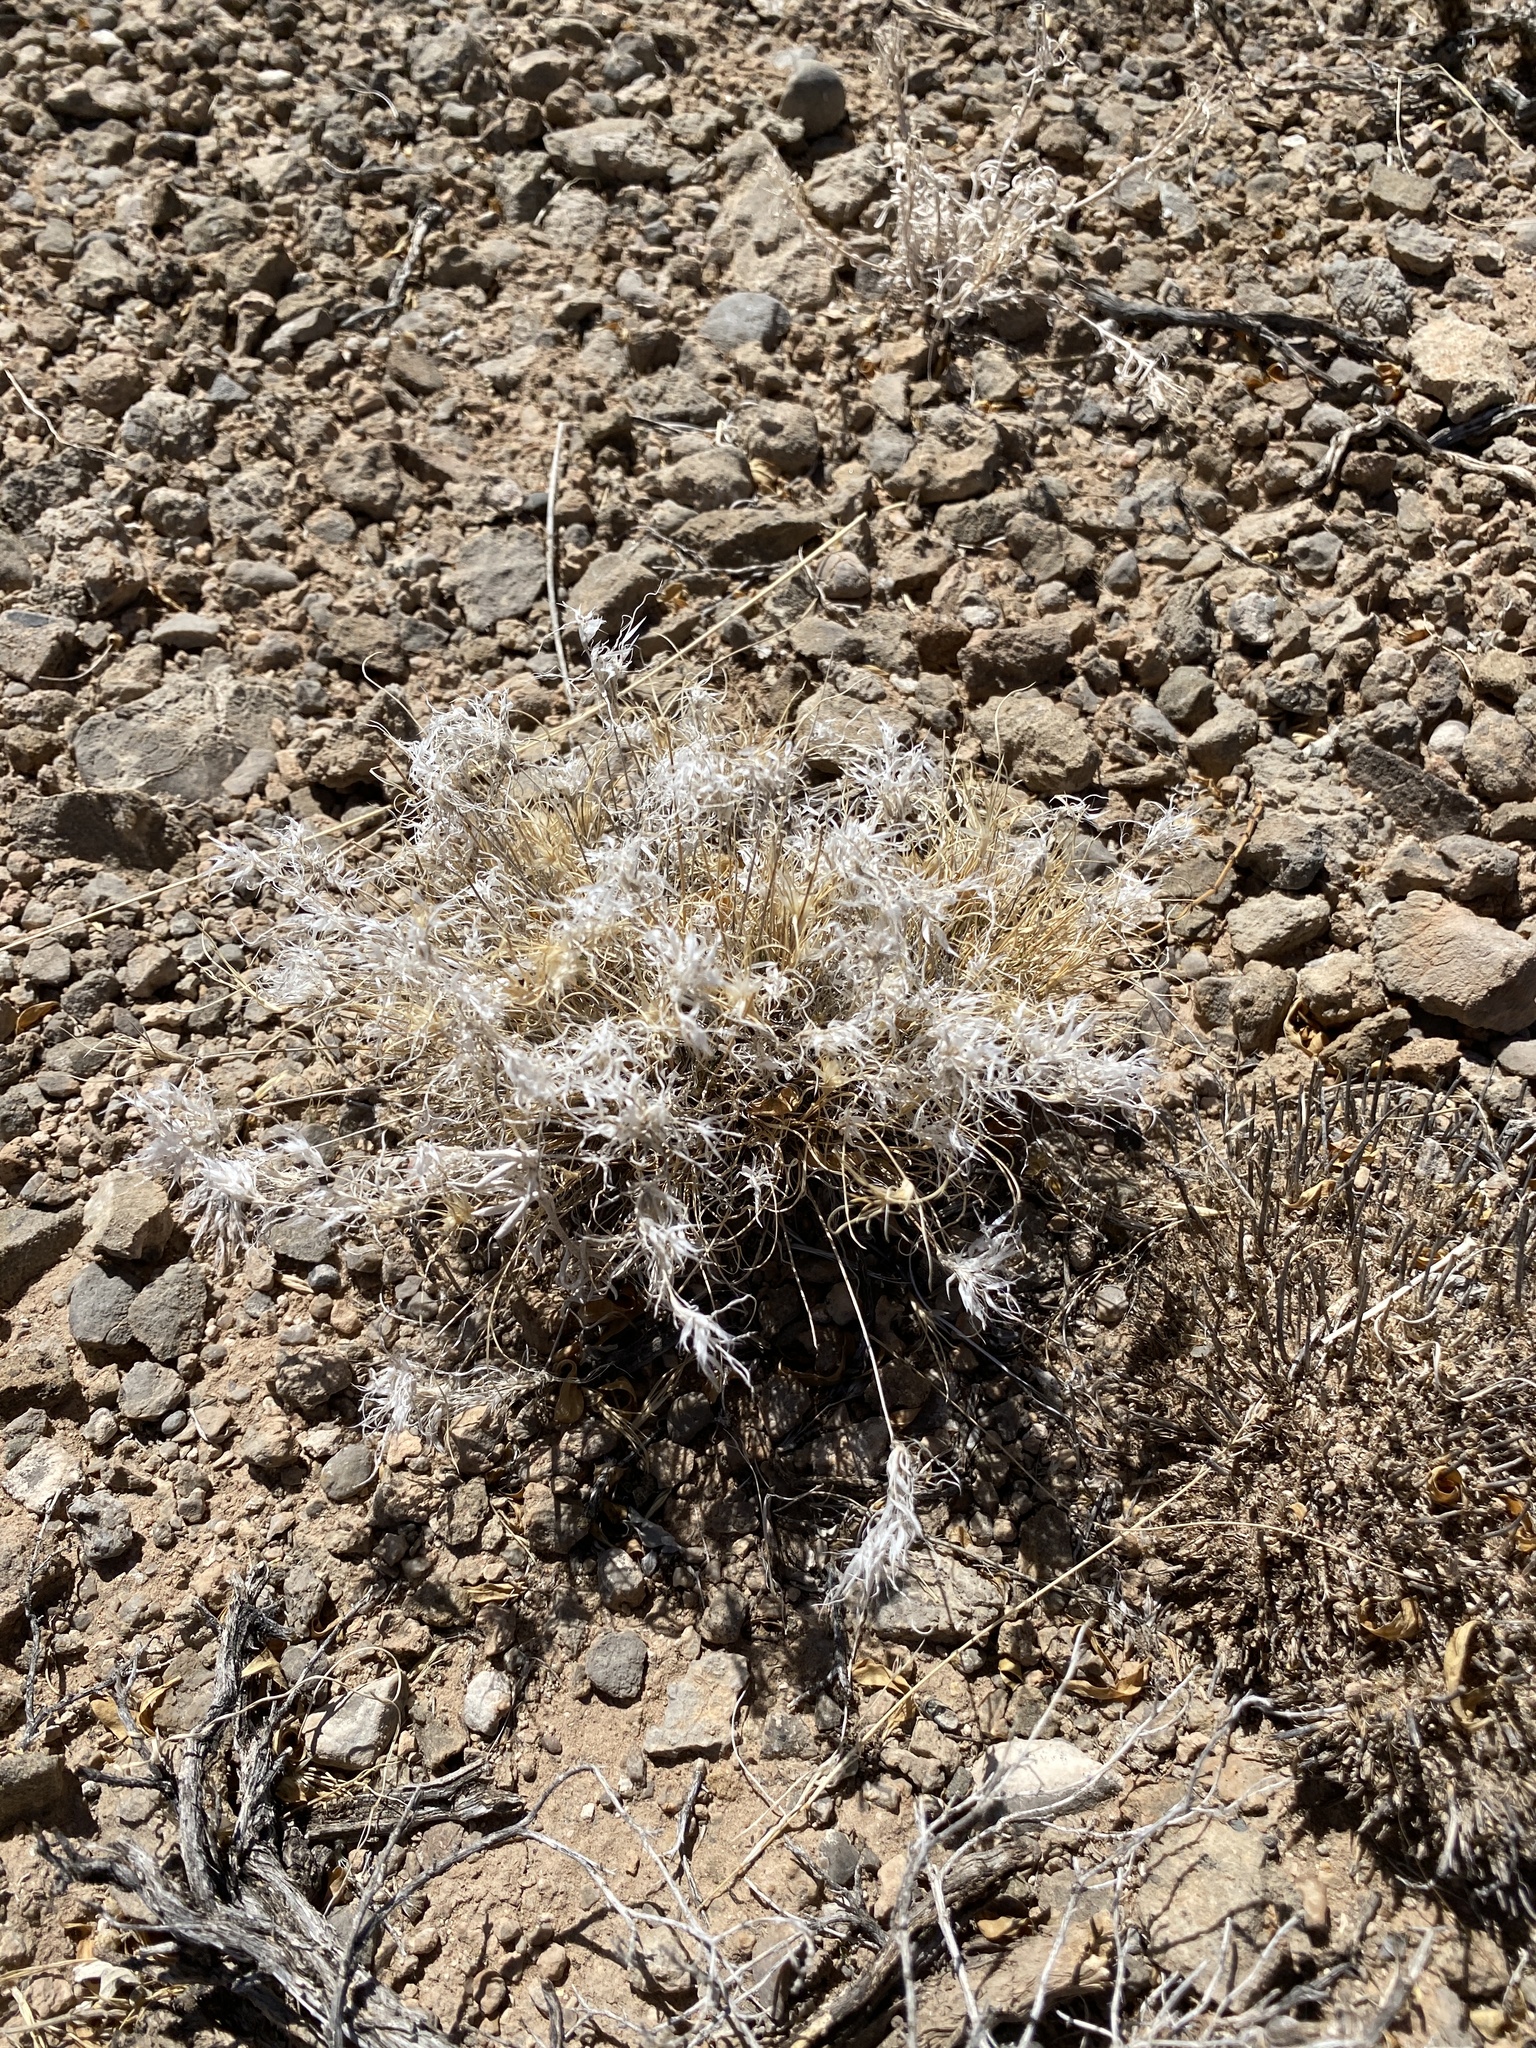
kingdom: Plantae
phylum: Tracheophyta
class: Liliopsida
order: Poales
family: Poaceae
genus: Dasyochloa
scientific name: Dasyochloa pulchella
